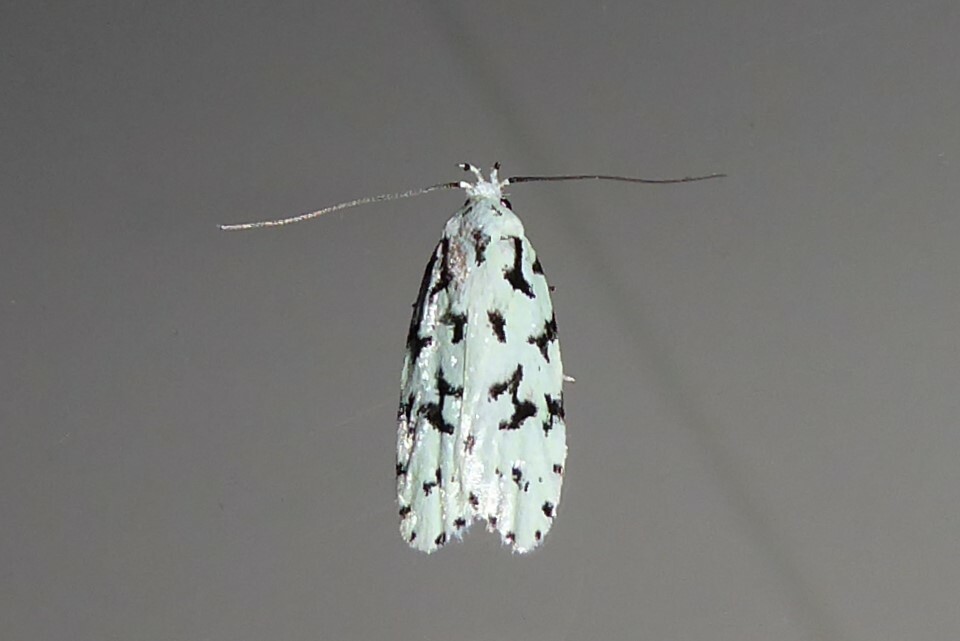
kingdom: Animalia
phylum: Arthropoda
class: Insecta
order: Lepidoptera
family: Oecophoridae
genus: Izatha
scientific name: Izatha huttoni
